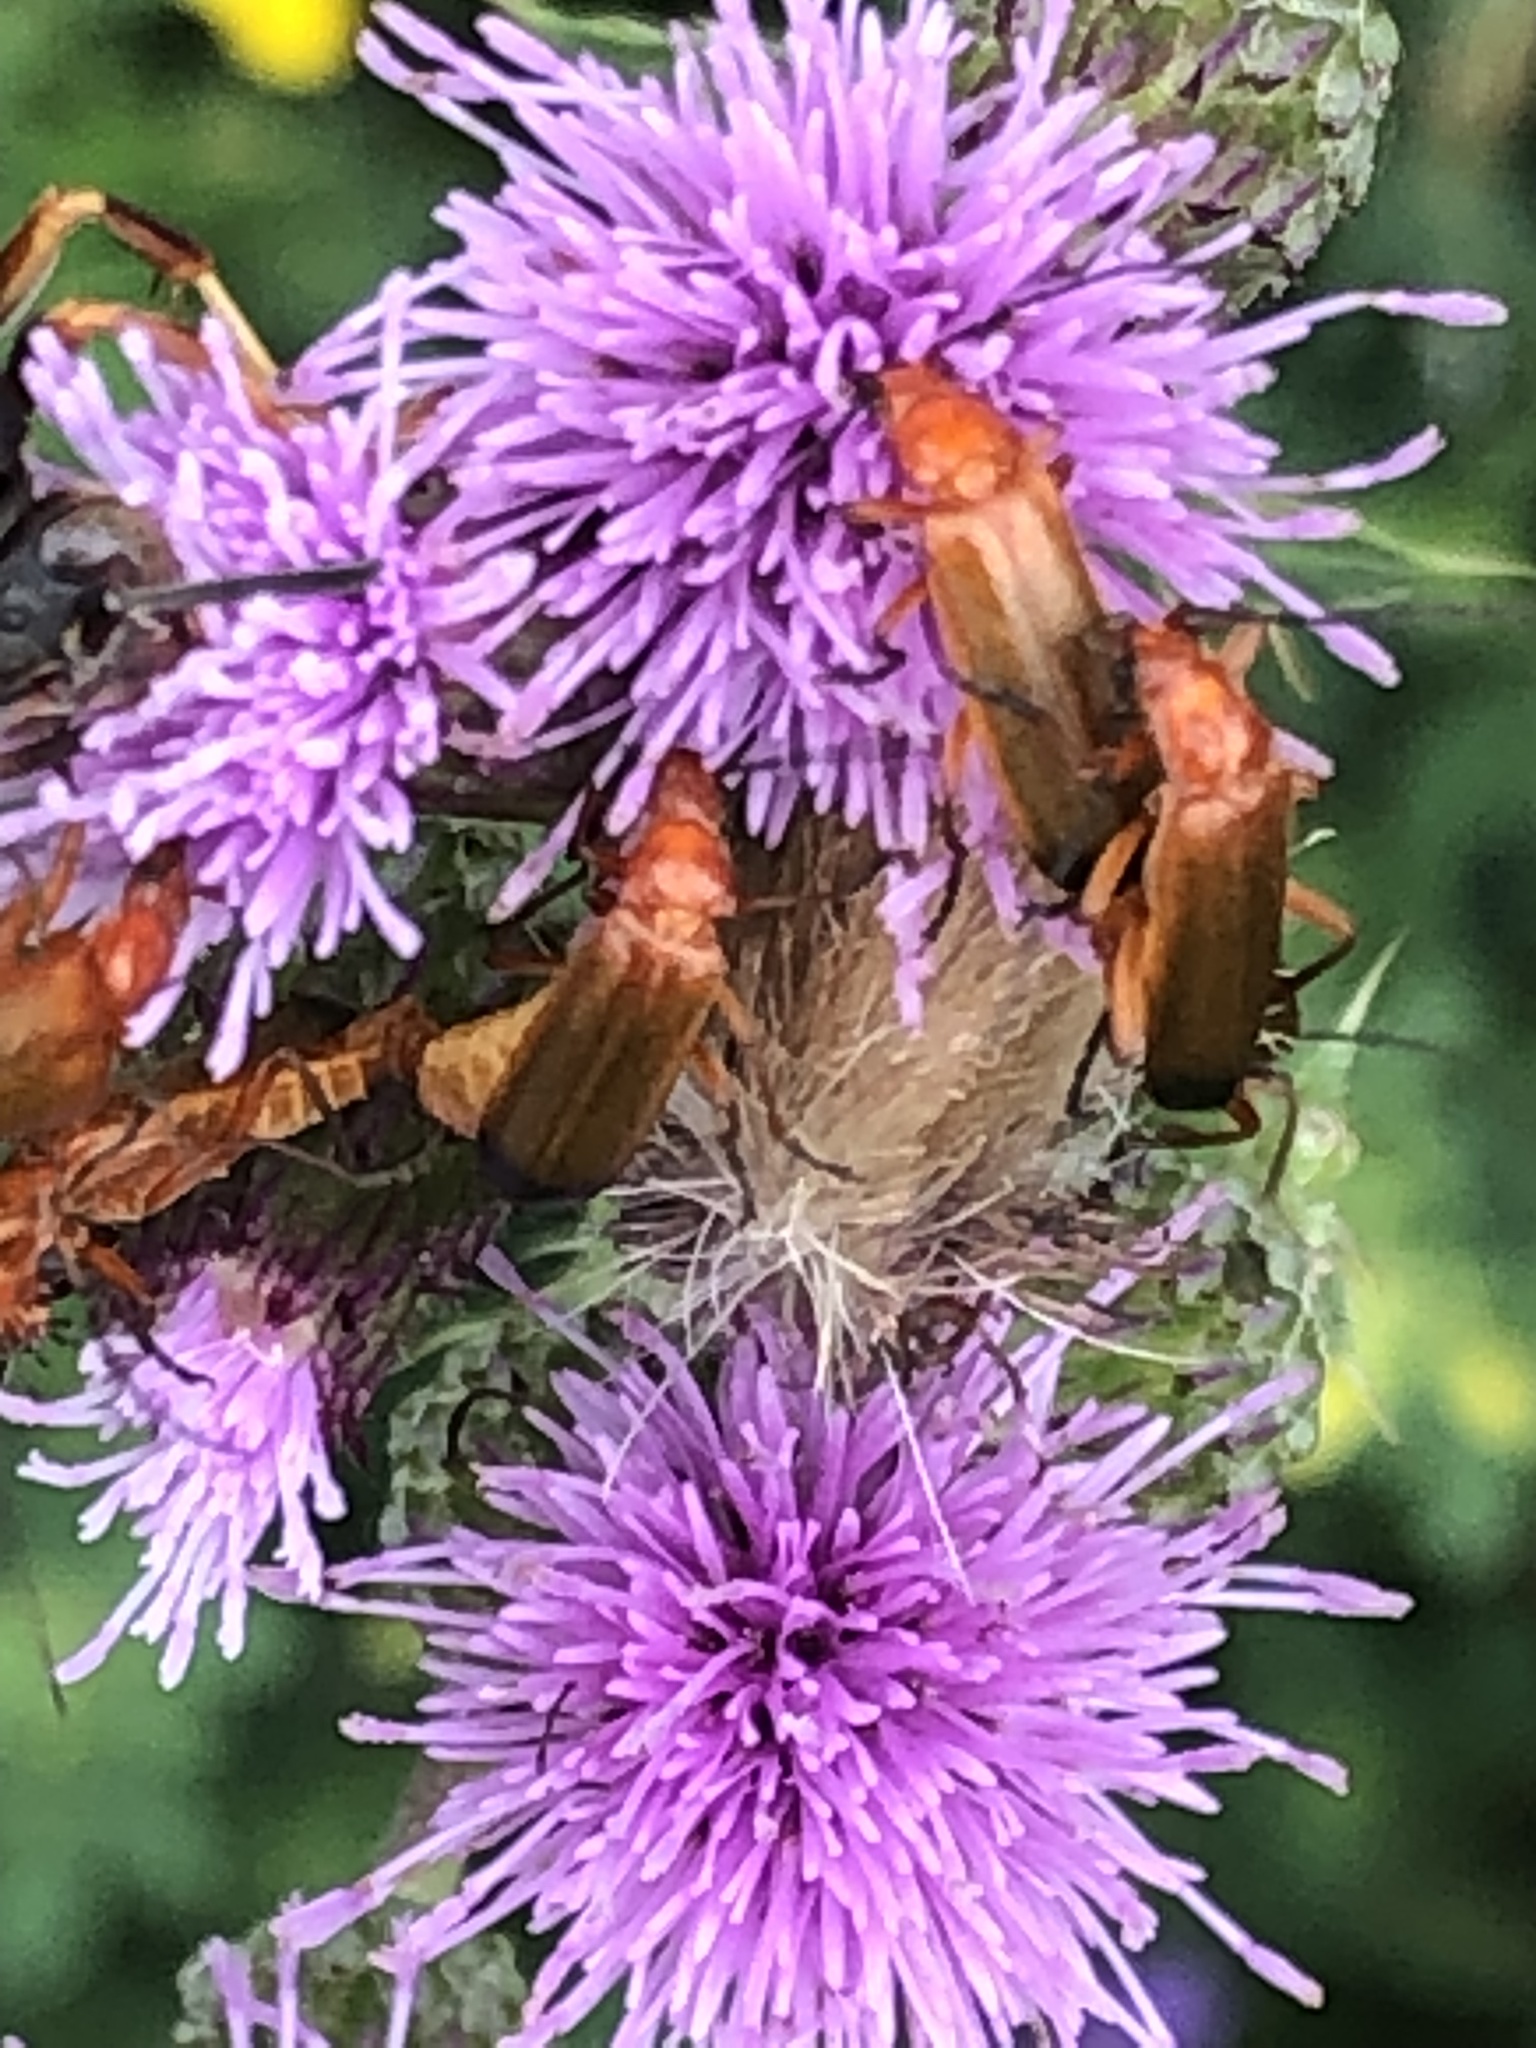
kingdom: Animalia
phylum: Arthropoda
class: Insecta
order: Coleoptera
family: Cantharidae
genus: Rhagonycha
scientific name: Rhagonycha fulva
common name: Common red soldier beetle
